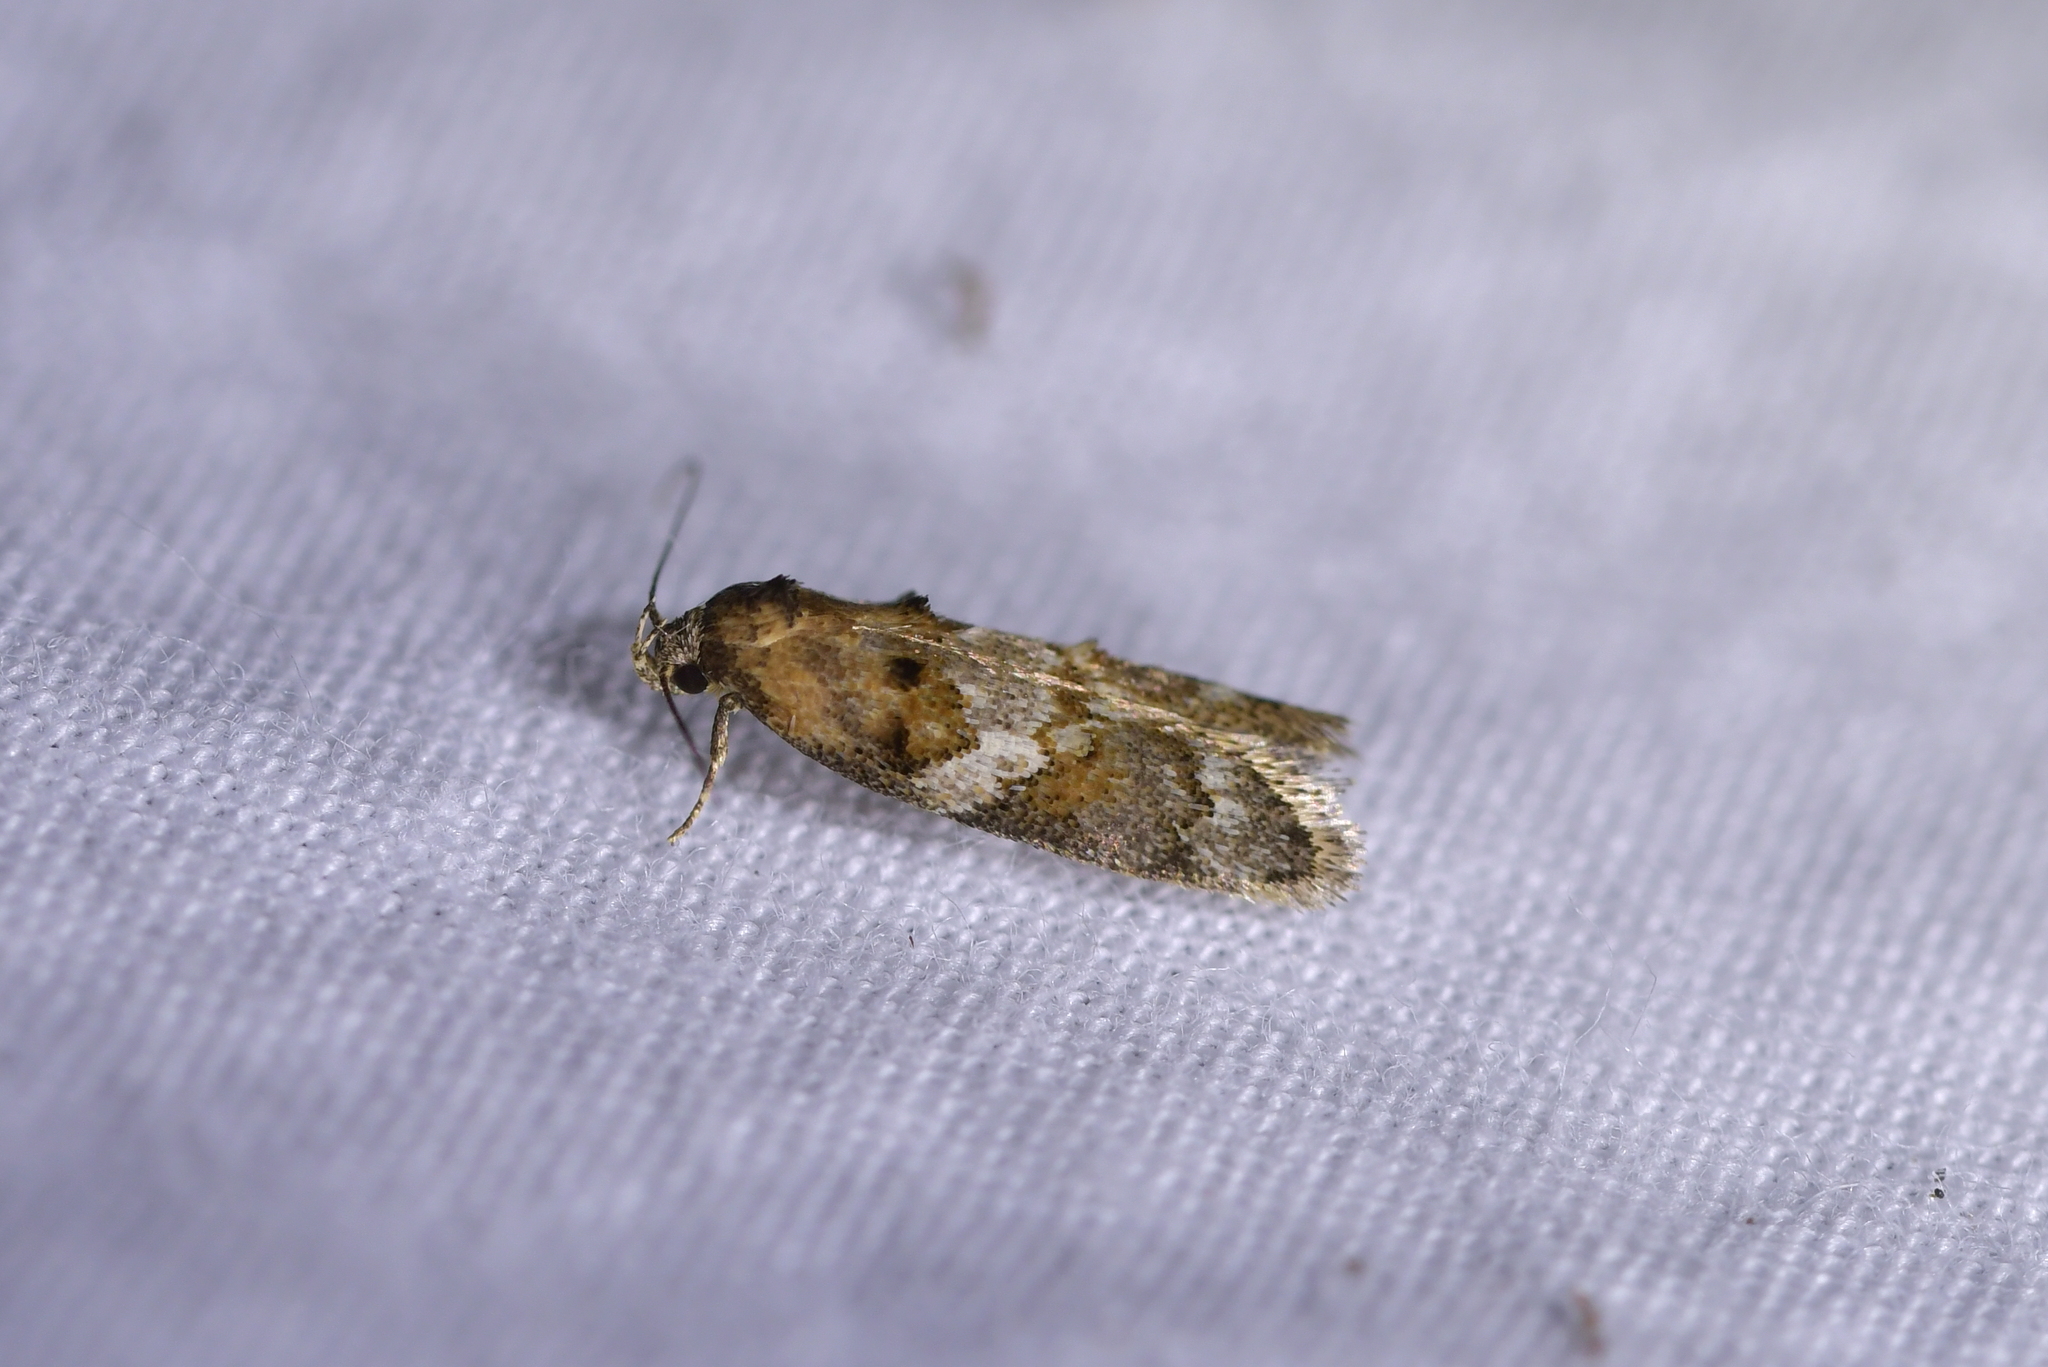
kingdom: Animalia
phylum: Arthropoda
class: Insecta
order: Lepidoptera
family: Oecophoridae
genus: Trachypepla
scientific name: Trachypepla galaxias
